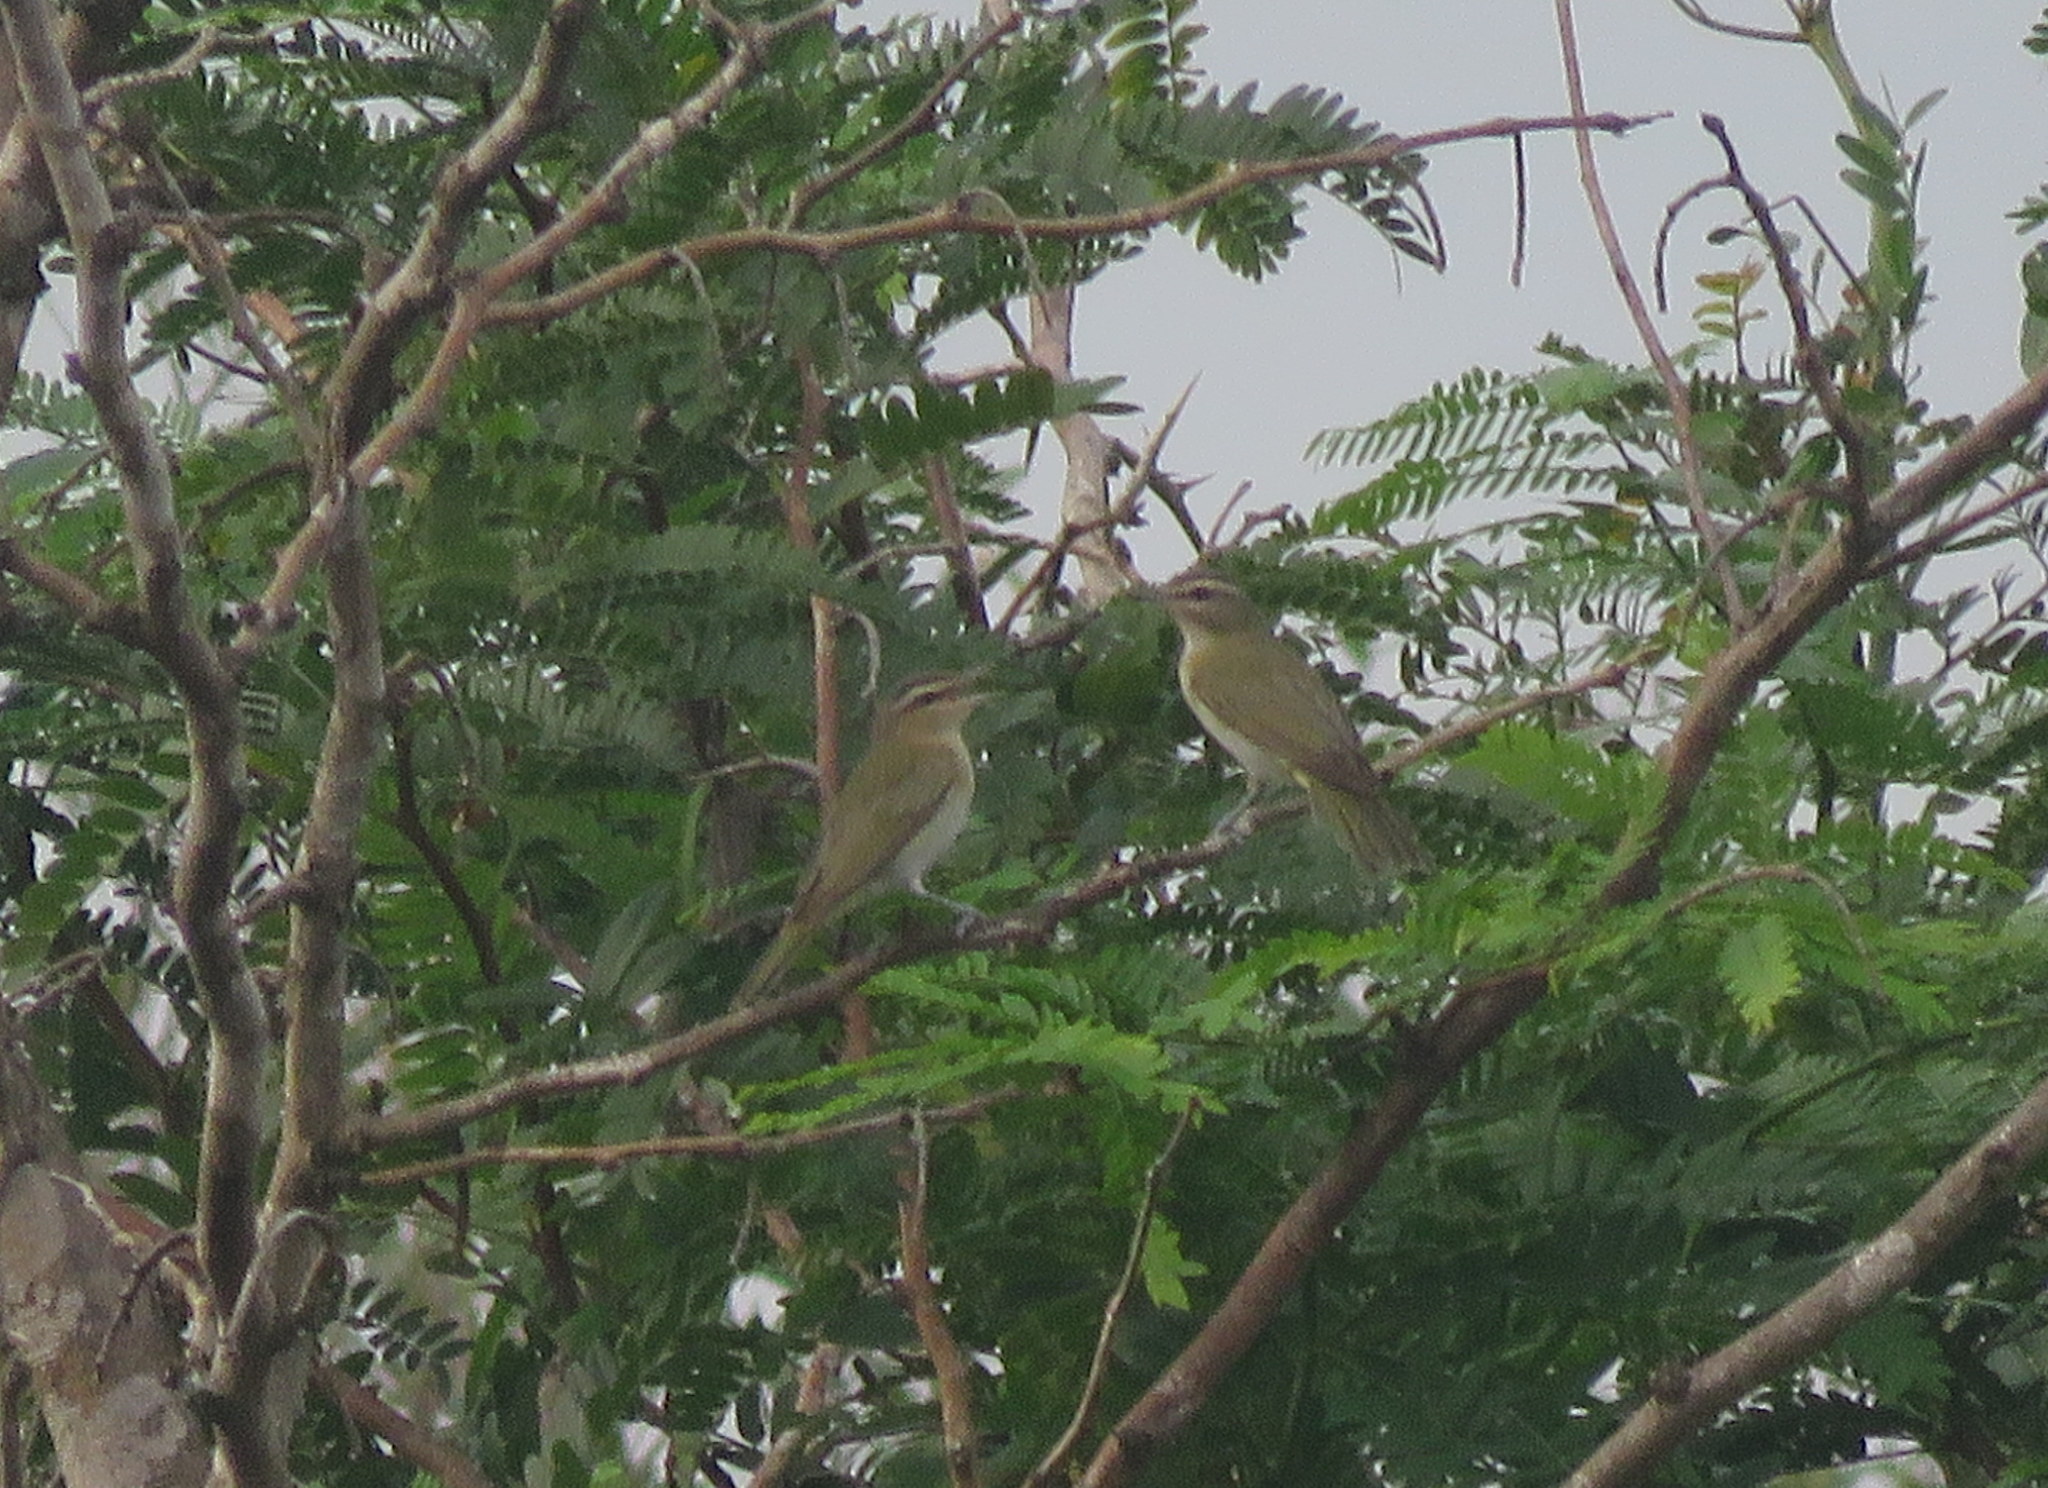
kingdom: Animalia
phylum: Chordata
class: Aves
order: Passeriformes
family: Vireonidae
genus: Vireo
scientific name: Vireo olivaceus
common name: Red-eyed vireo
